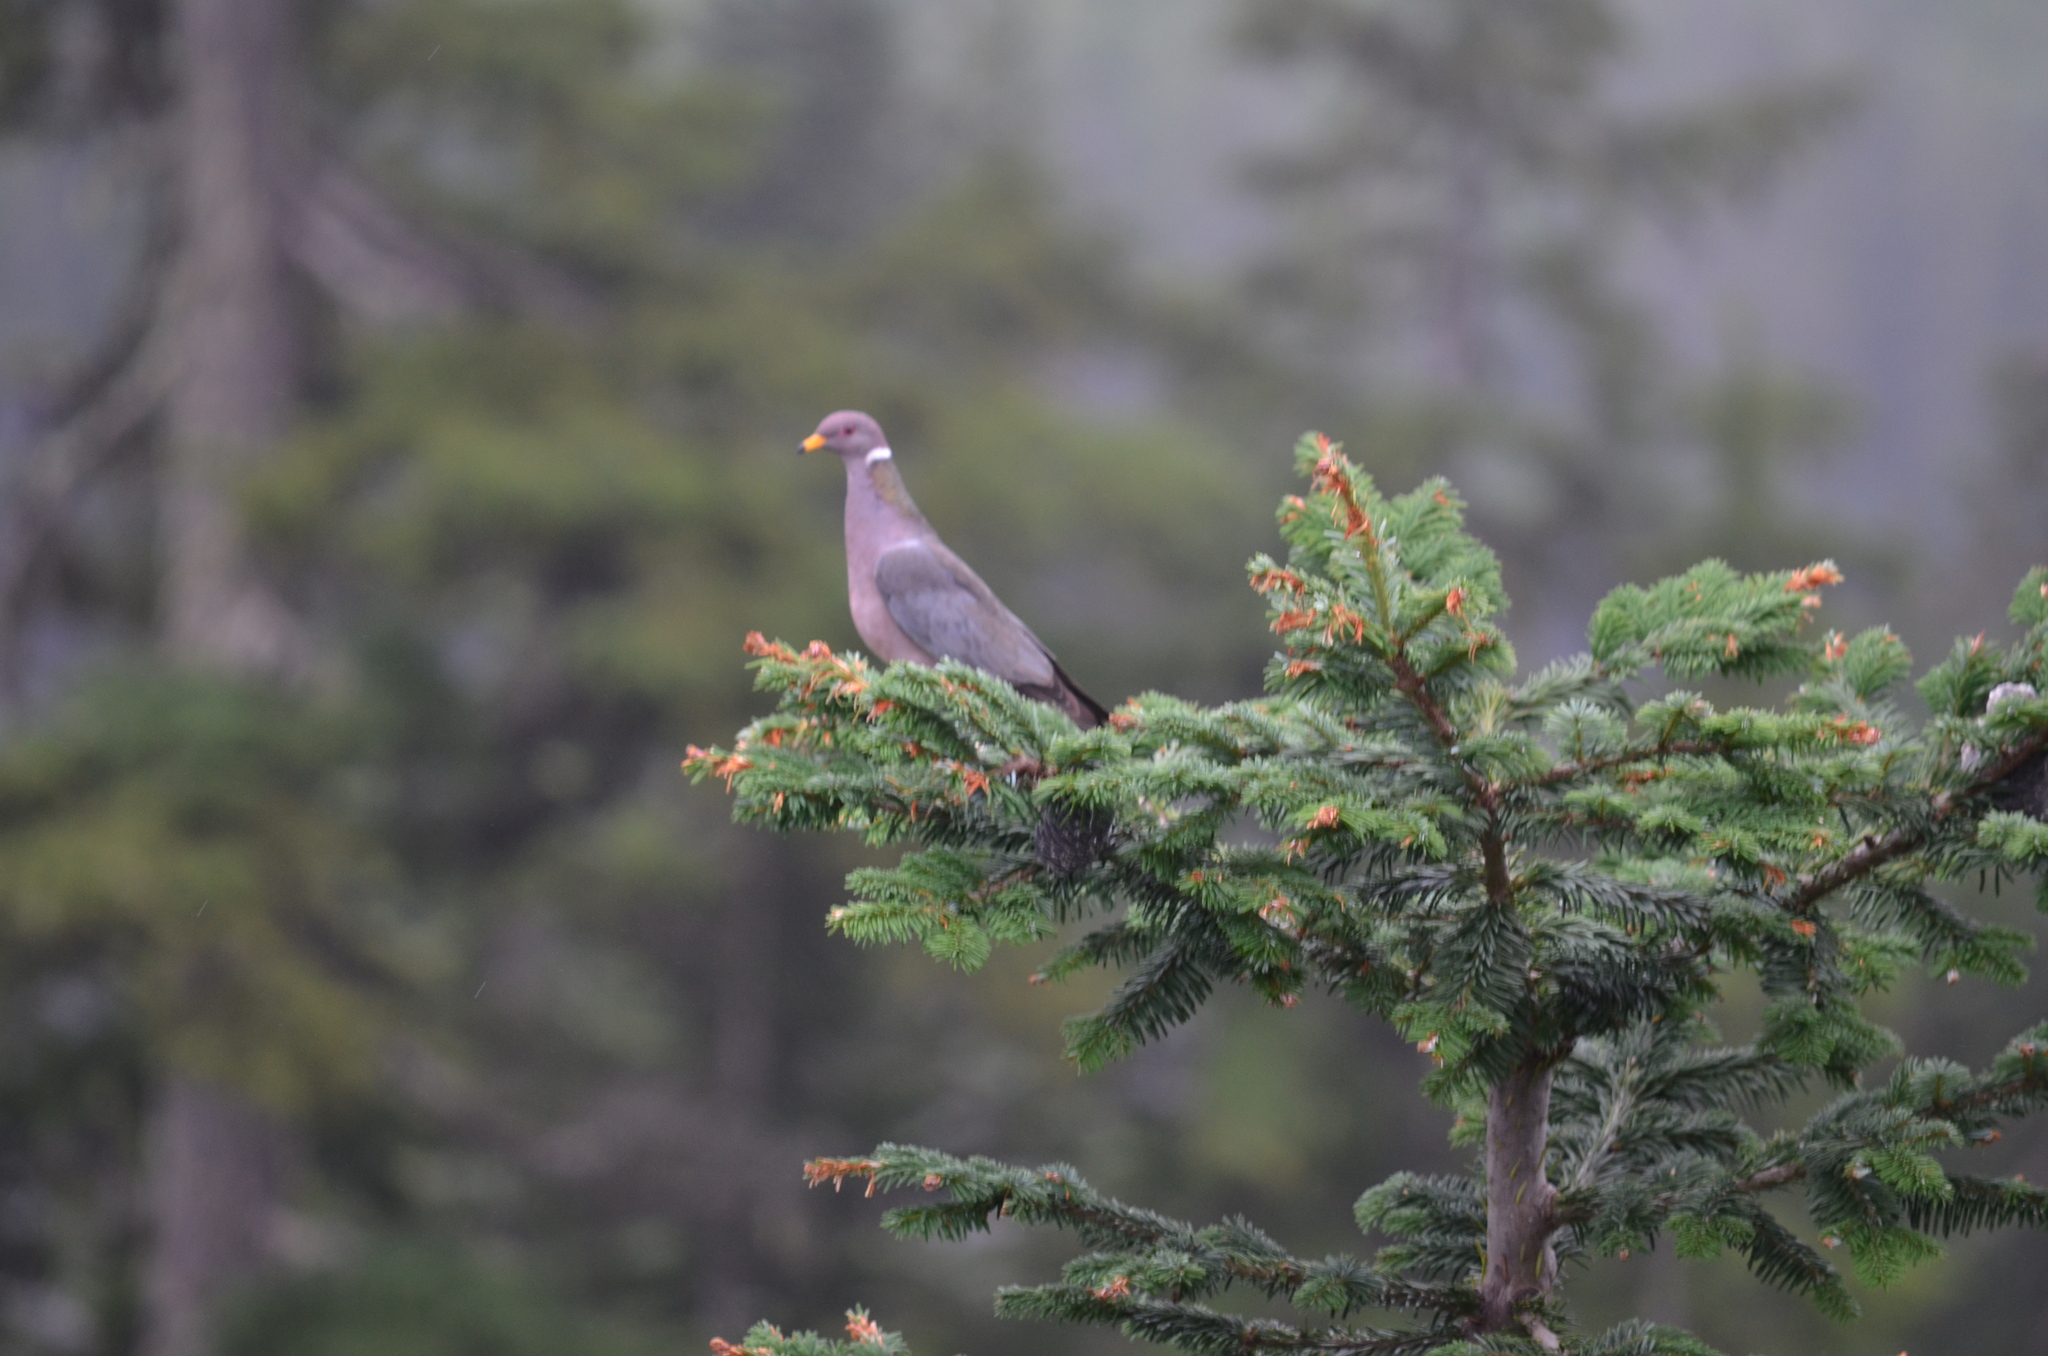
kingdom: Animalia
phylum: Chordata
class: Aves
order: Columbiformes
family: Columbidae
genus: Patagioenas
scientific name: Patagioenas fasciata
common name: Band-tailed pigeon
